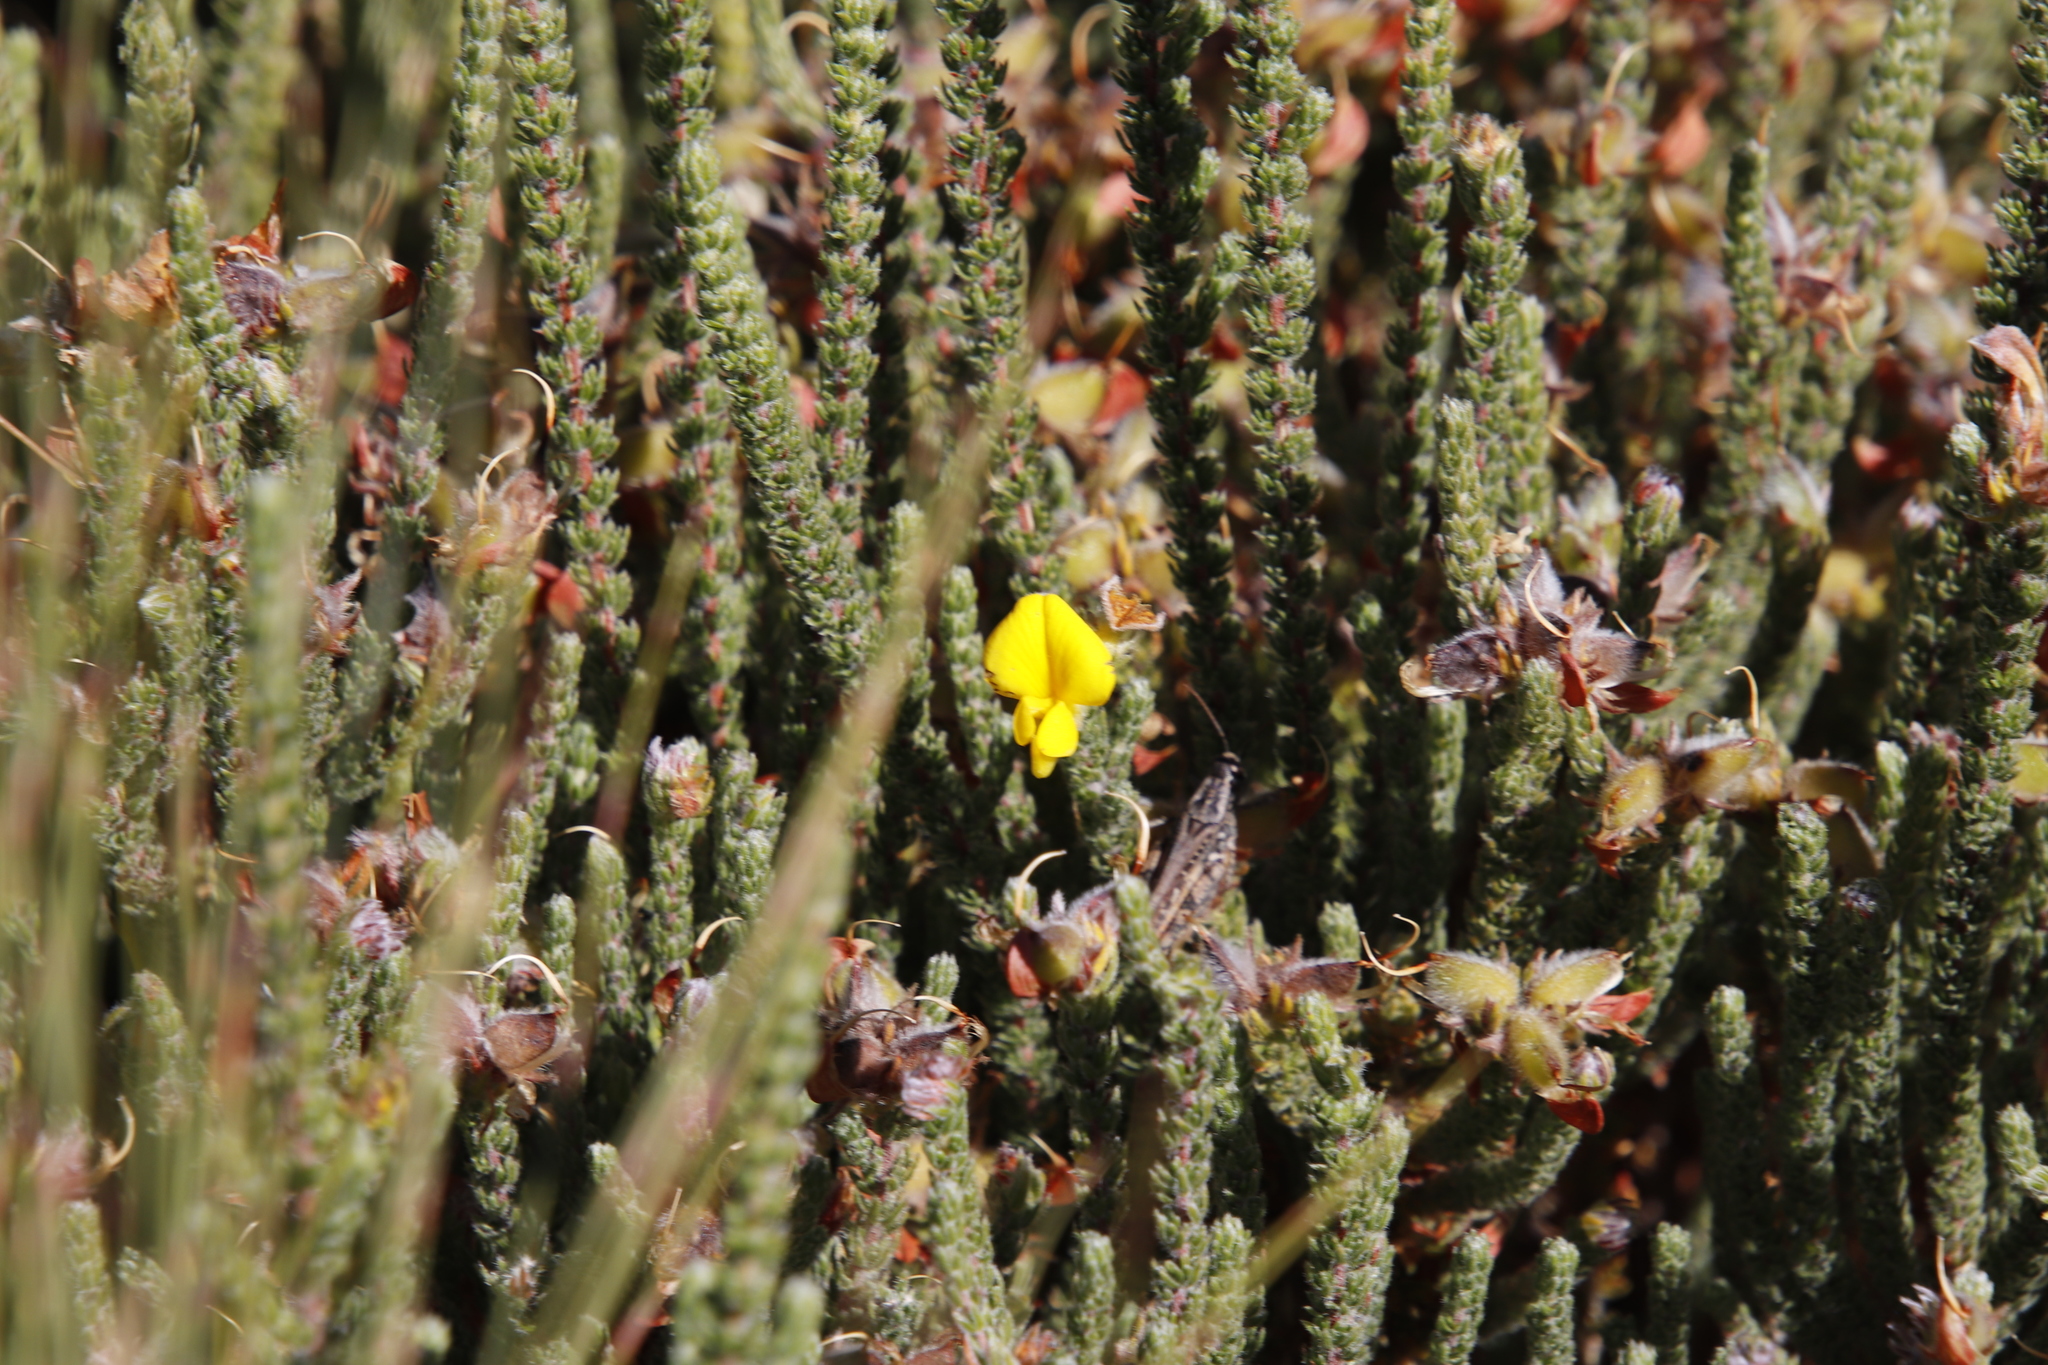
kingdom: Plantae
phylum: Tracheophyta
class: Magnoliopsida
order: Fabales
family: Fabaceae
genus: Aspalathus
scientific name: Aspalathus triquetra
